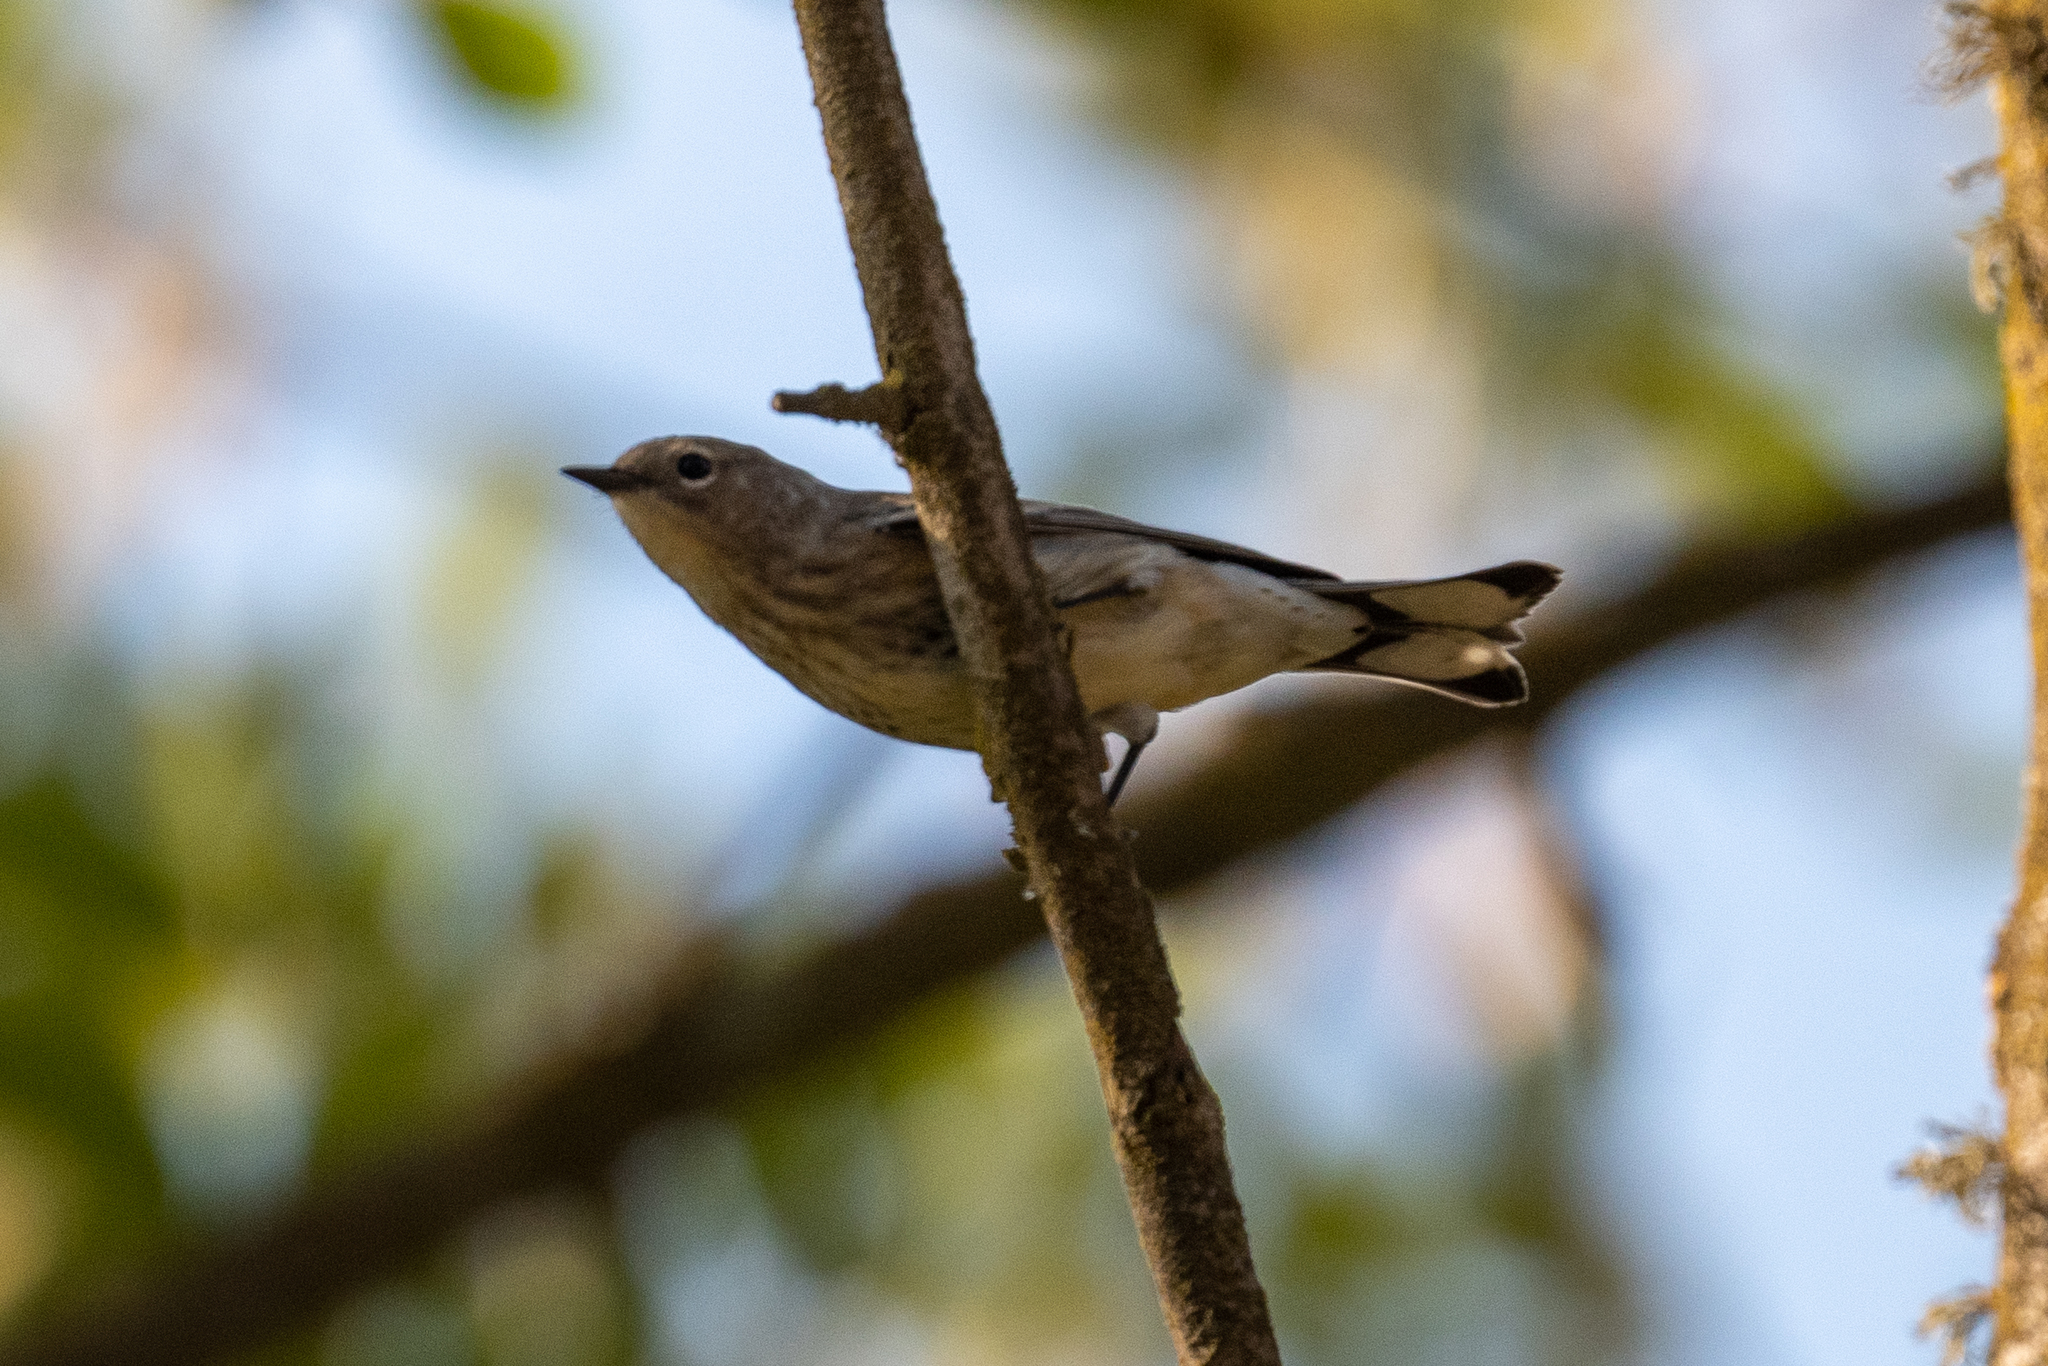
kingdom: Animalia
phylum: Chordata
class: Aves
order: Passeriformes
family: Parulidae
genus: Setophaga
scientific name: Setophaga coronata
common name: Myrtle warbler
